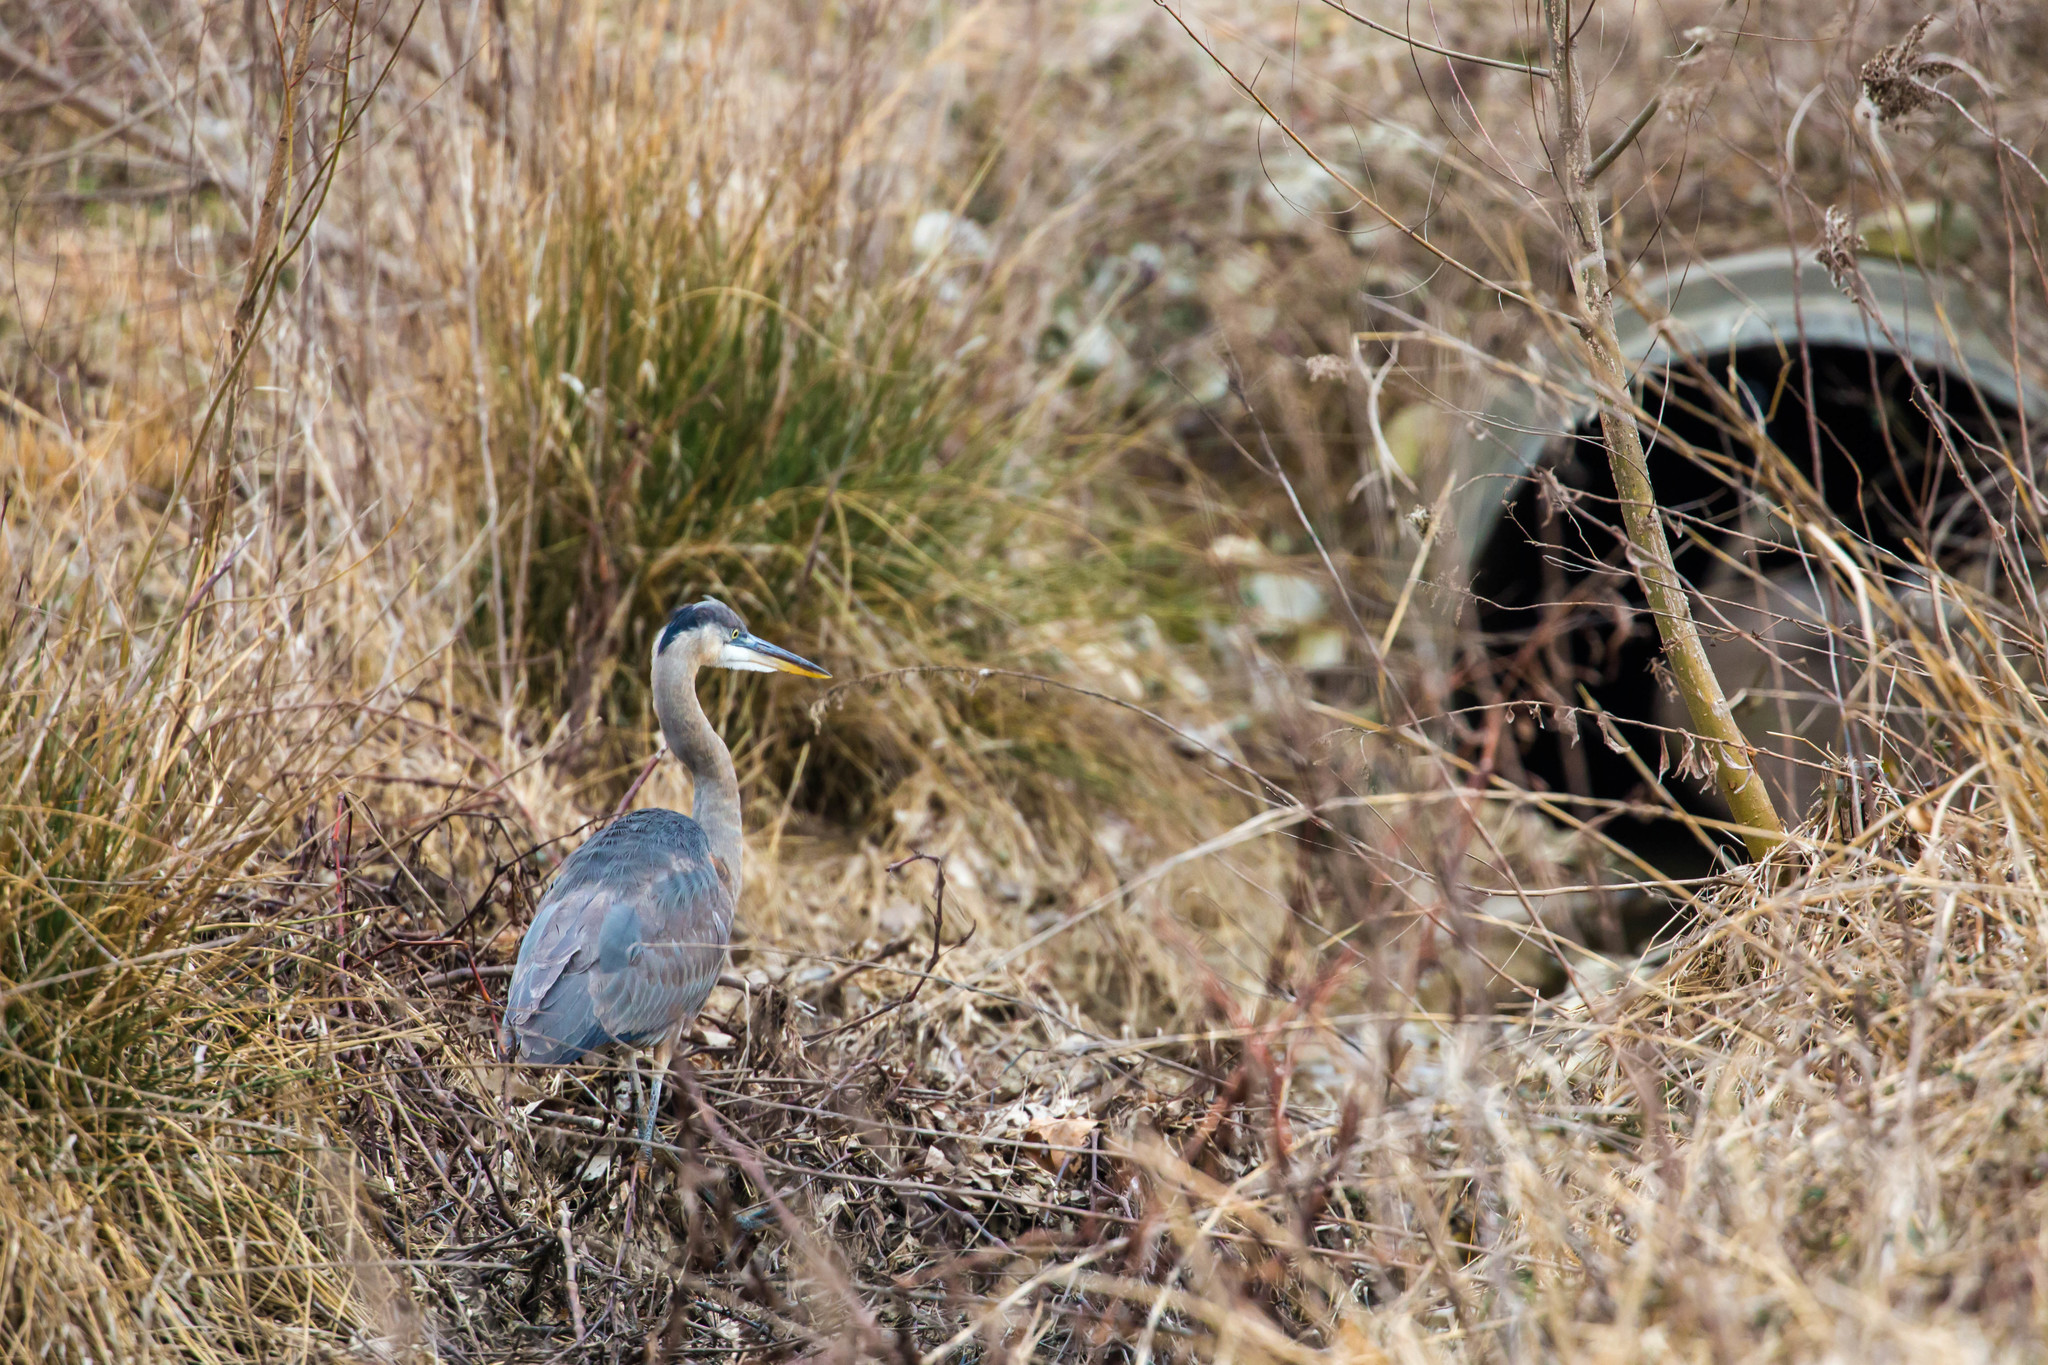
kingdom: Animalia
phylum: Chordata
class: Aves
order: Pelecaniformes
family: Ardeidae
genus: Ardea
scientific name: Ardea herodias
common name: Great blue heron
